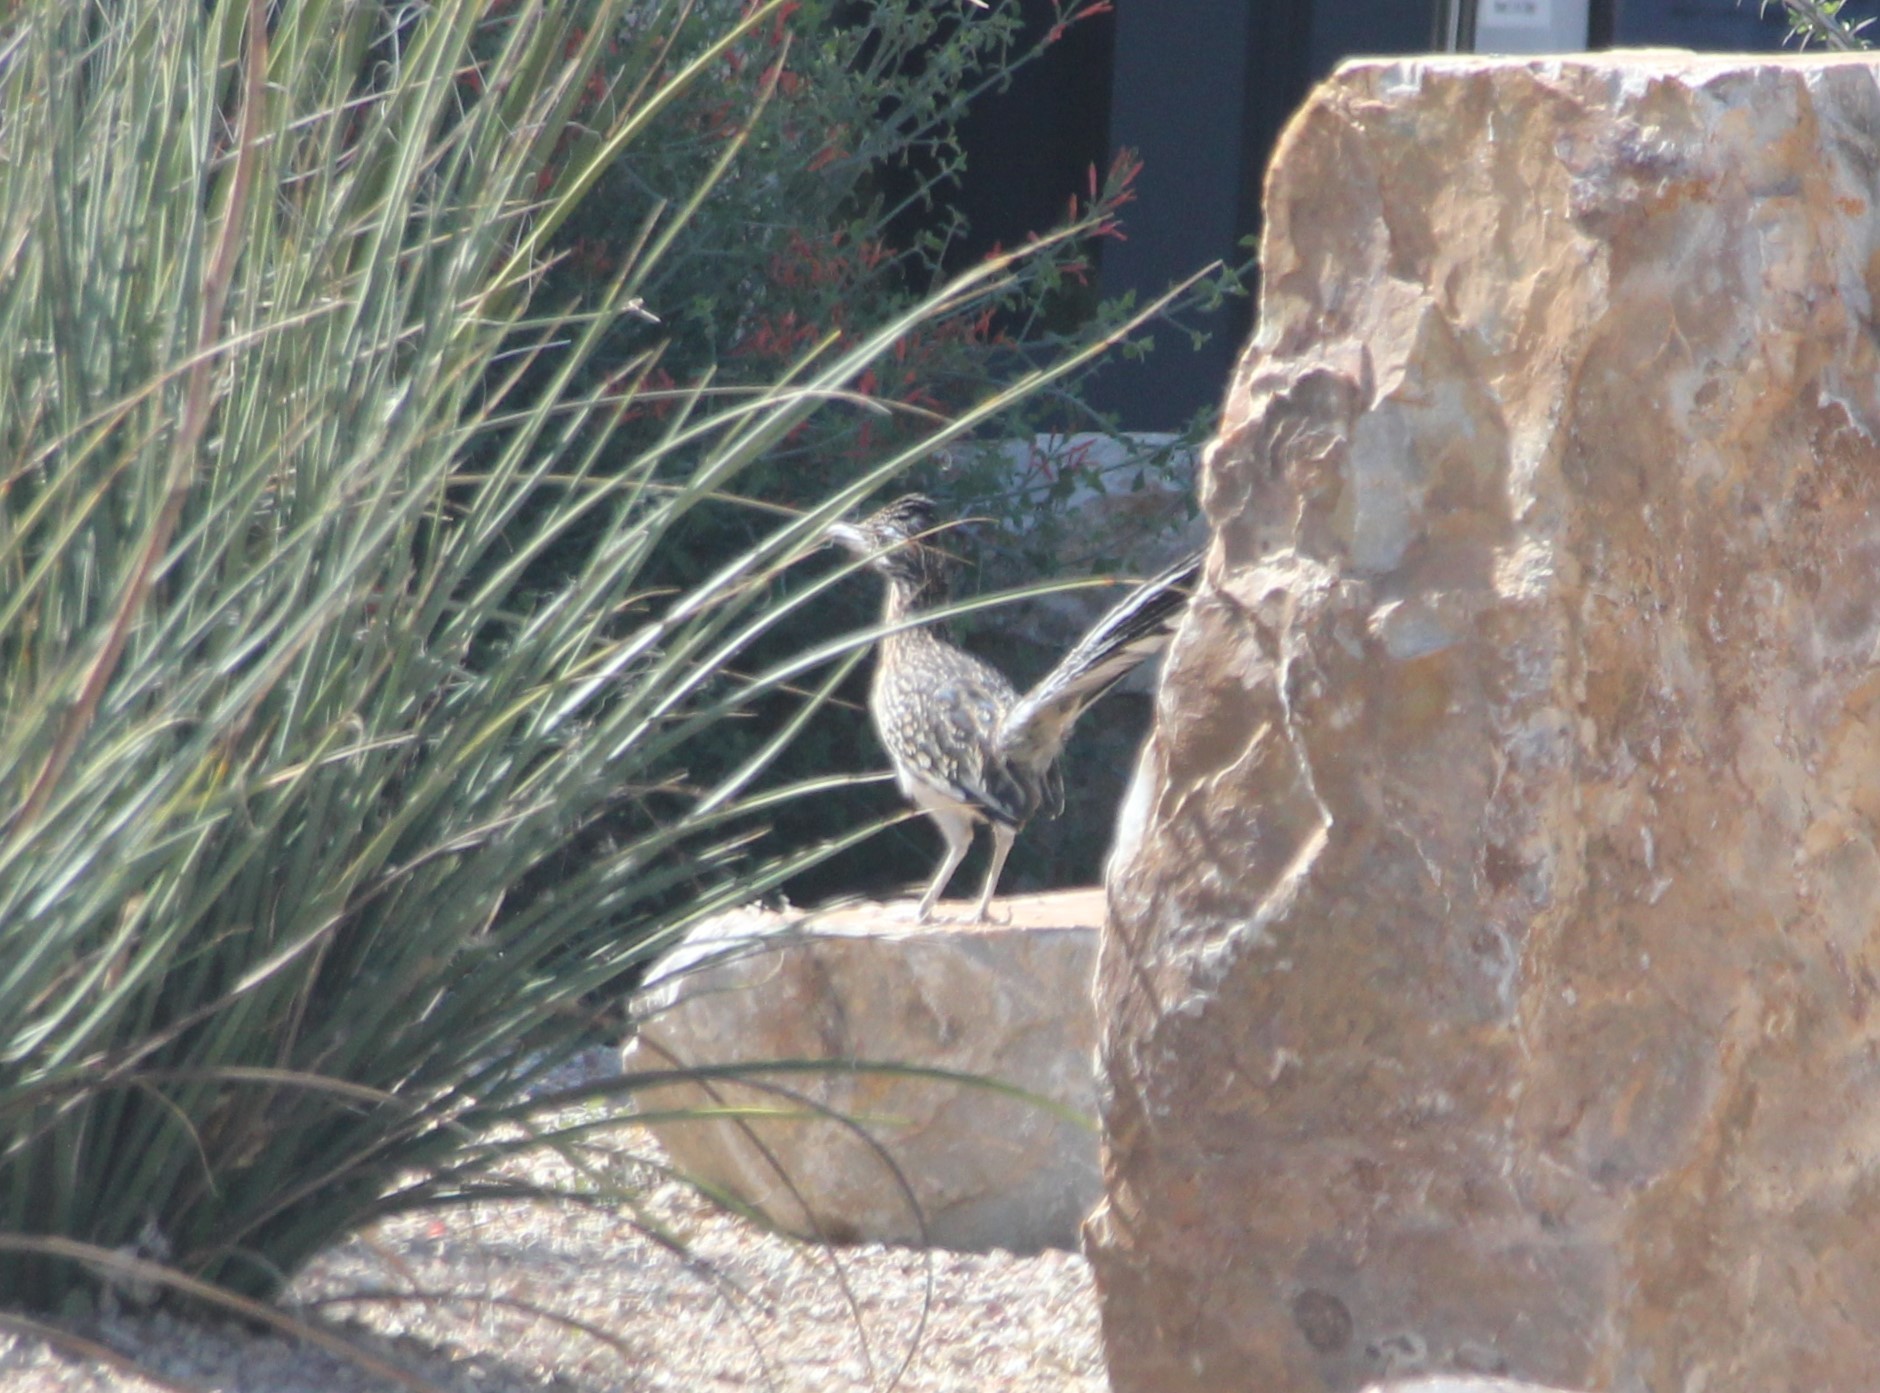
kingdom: Animalia
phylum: Chordata
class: Aves
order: Cuculiformes
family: Cuculidae
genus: Geococcyx
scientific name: Geococcyx californianus
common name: Greater roadrunner
